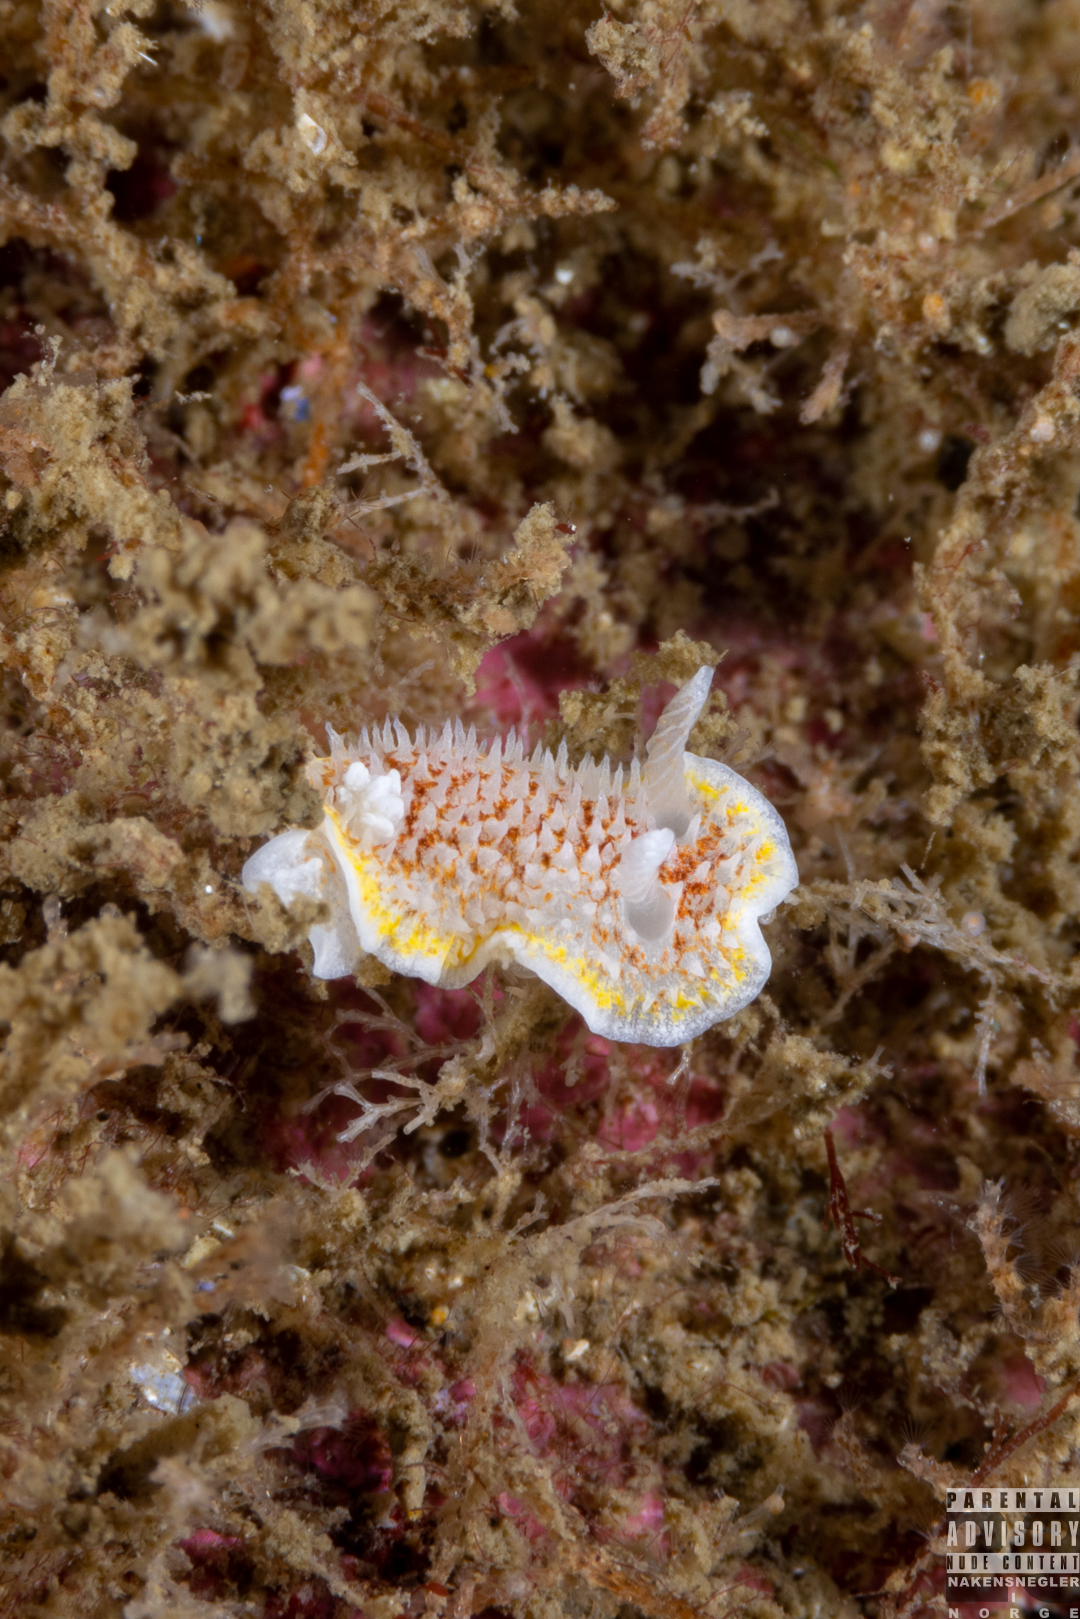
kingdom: Animalia
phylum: Mollusca
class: Gastropoda
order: Nudibranchia
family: Calycidorididae
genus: Diaphorodoris
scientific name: Diaphorodoris luteocincta
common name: Fried egg nudibranch
